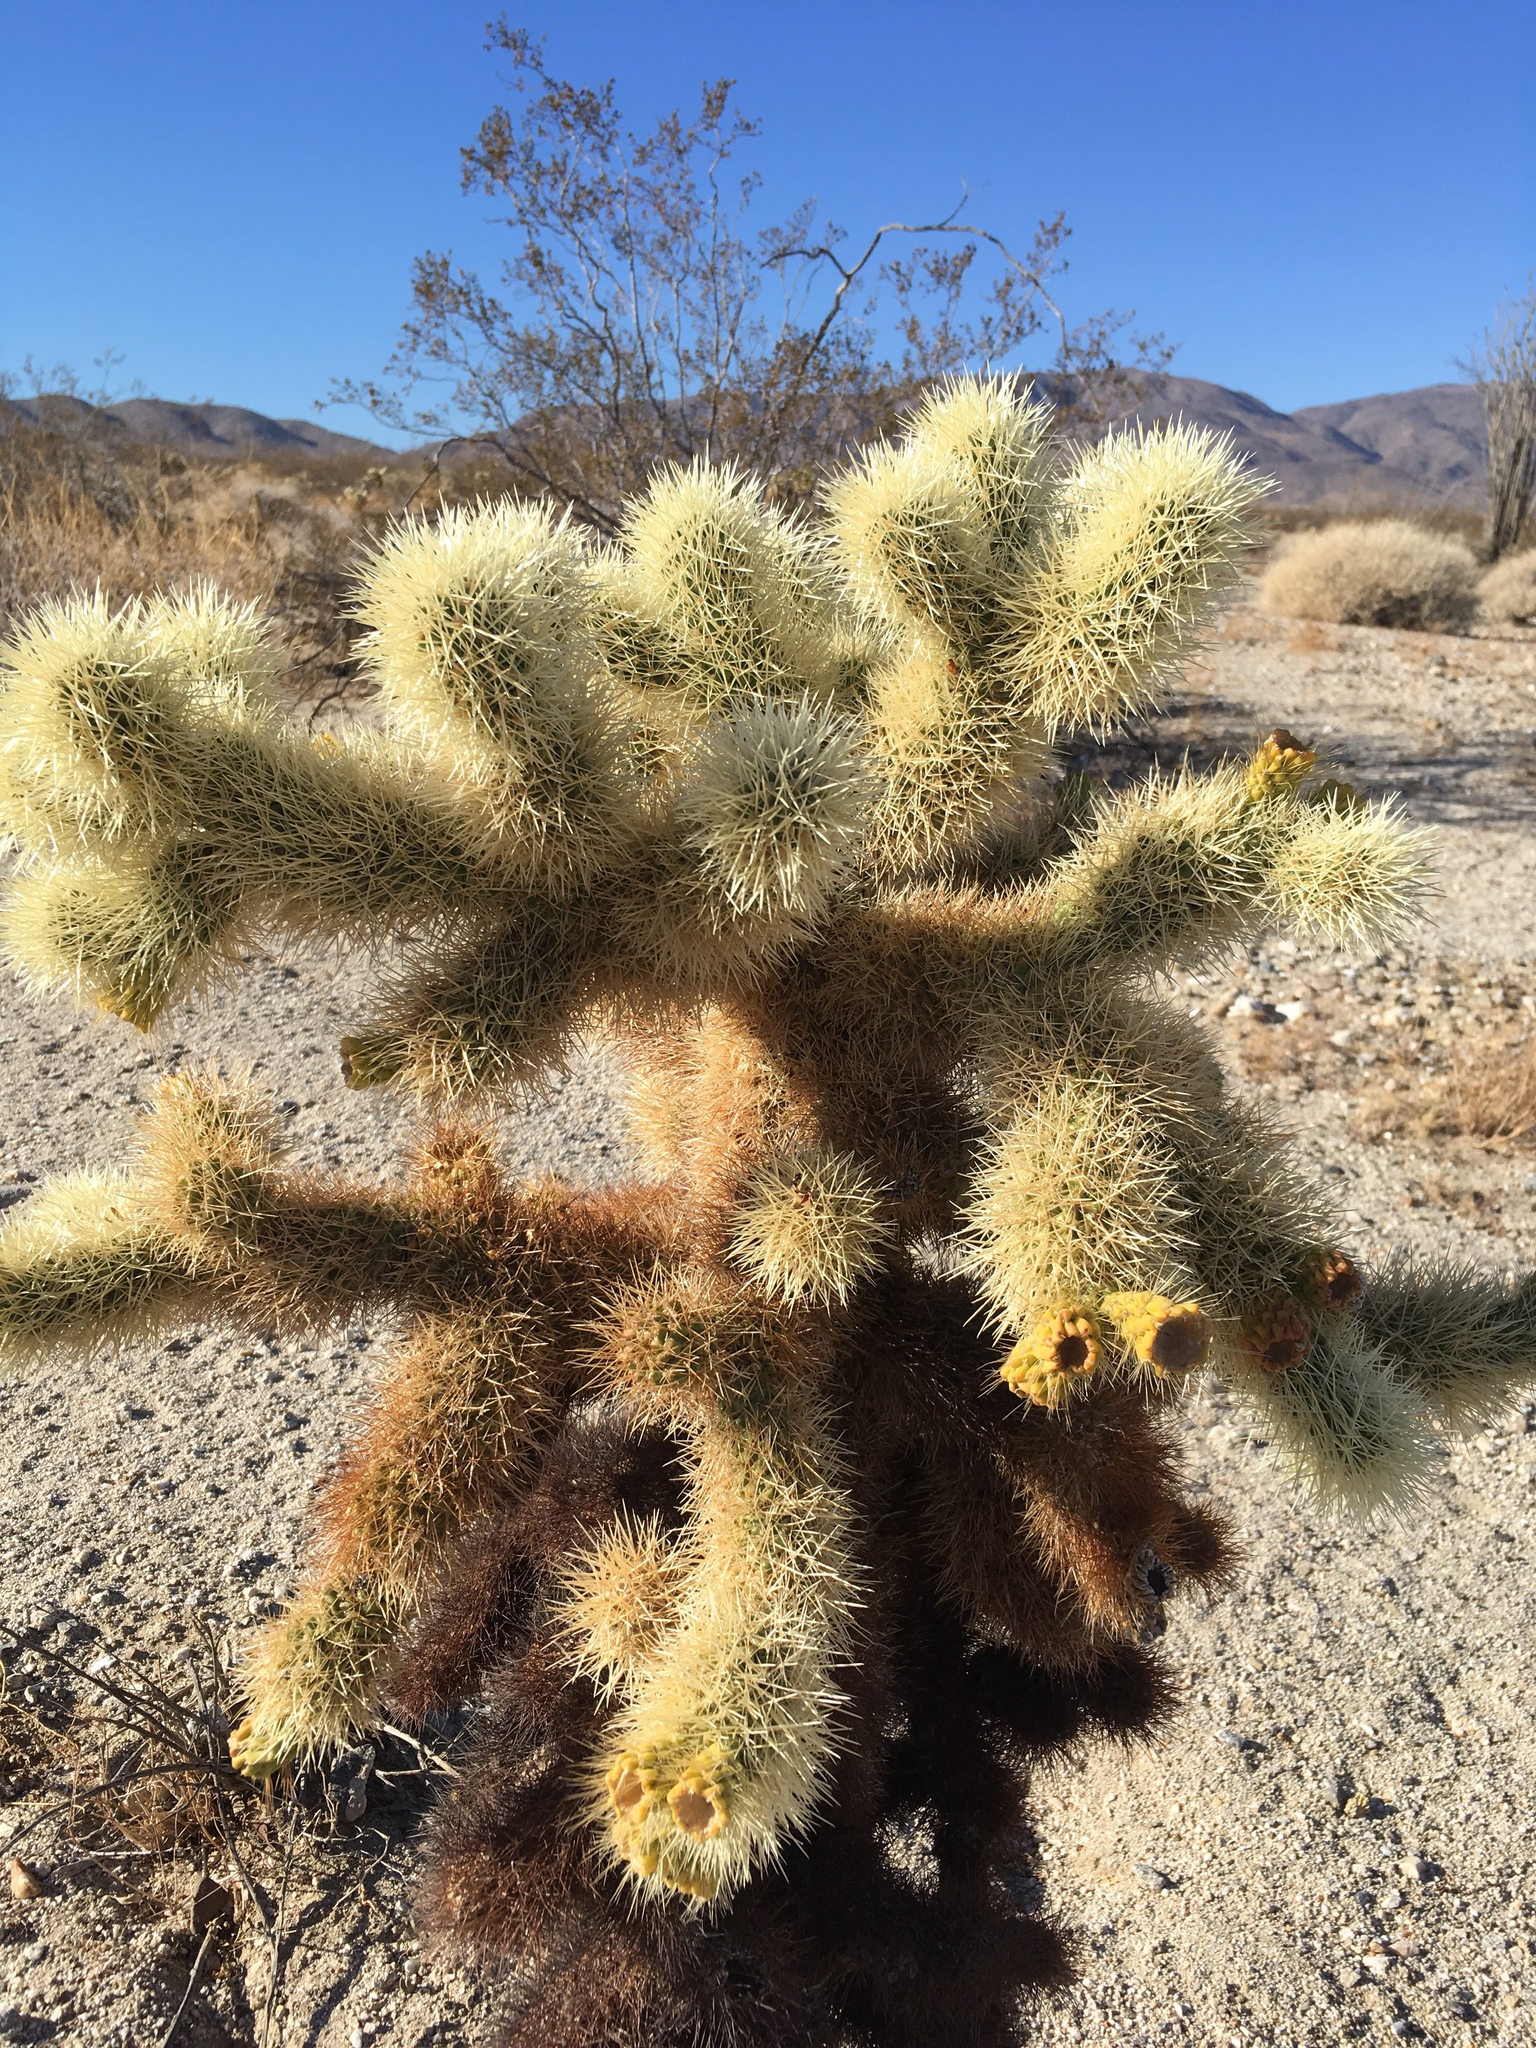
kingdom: Plantae
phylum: Tracheophyta
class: Magnoliopsida
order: Caryophyllales
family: Cactaceae
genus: Cylindropuntia
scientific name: Cylindropuntia fosbergii
